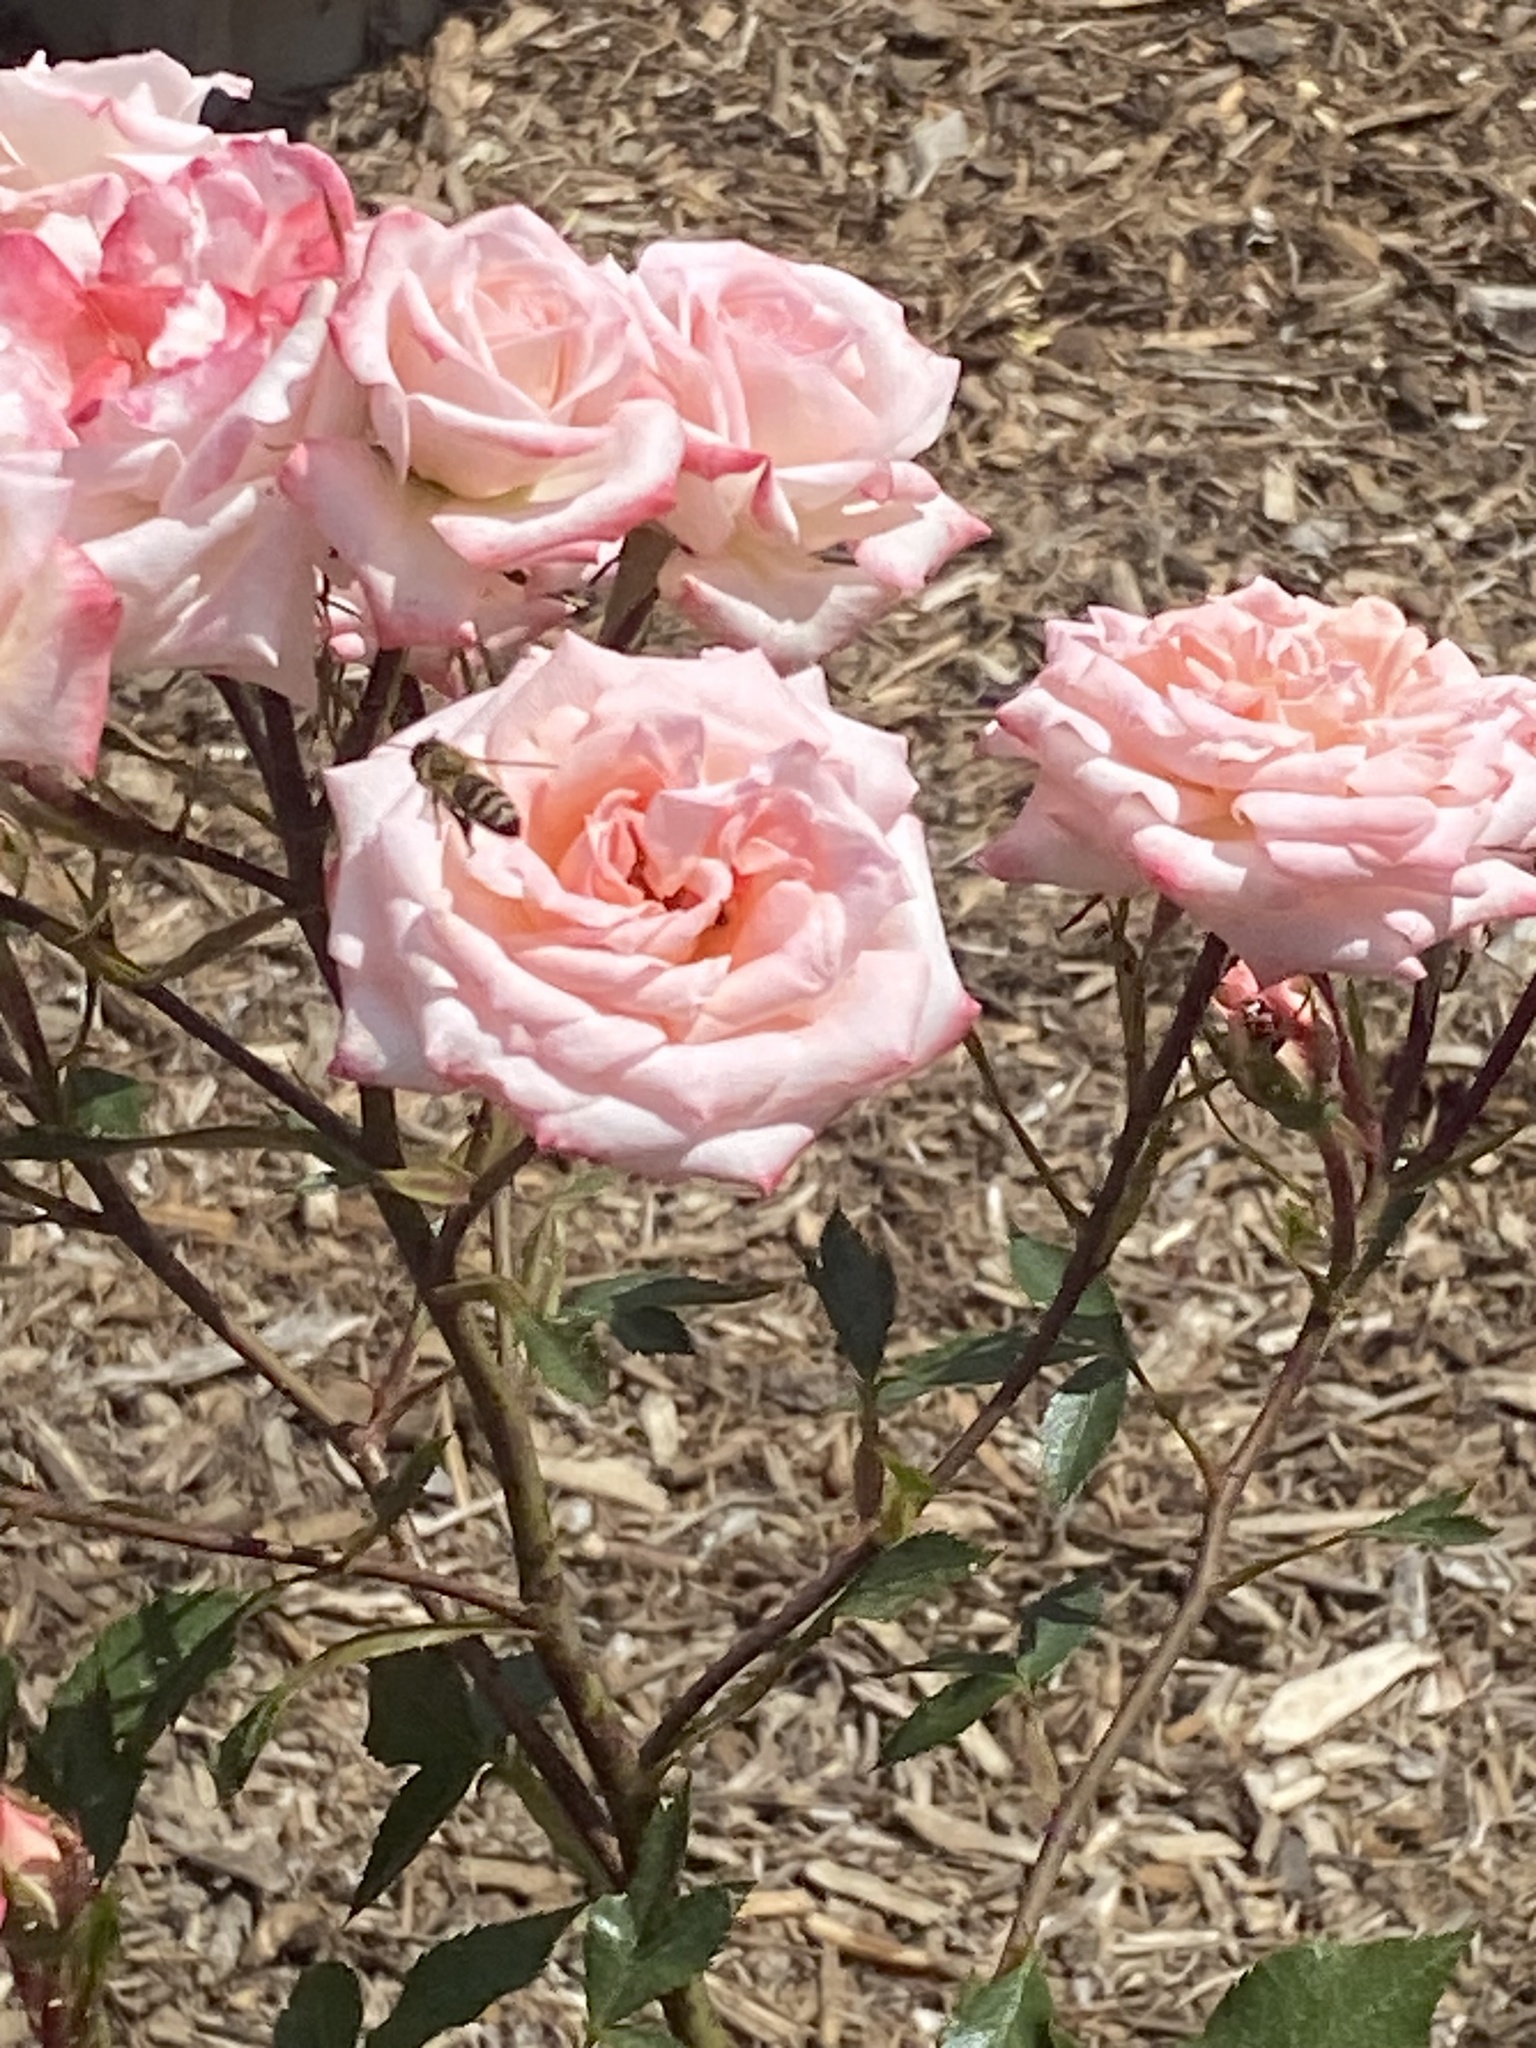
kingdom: Animalia
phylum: Arthropoda
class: Insecta
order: Hymenoptera
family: Apidae
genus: Apis
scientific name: Apis mellifera
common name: Honey bee
